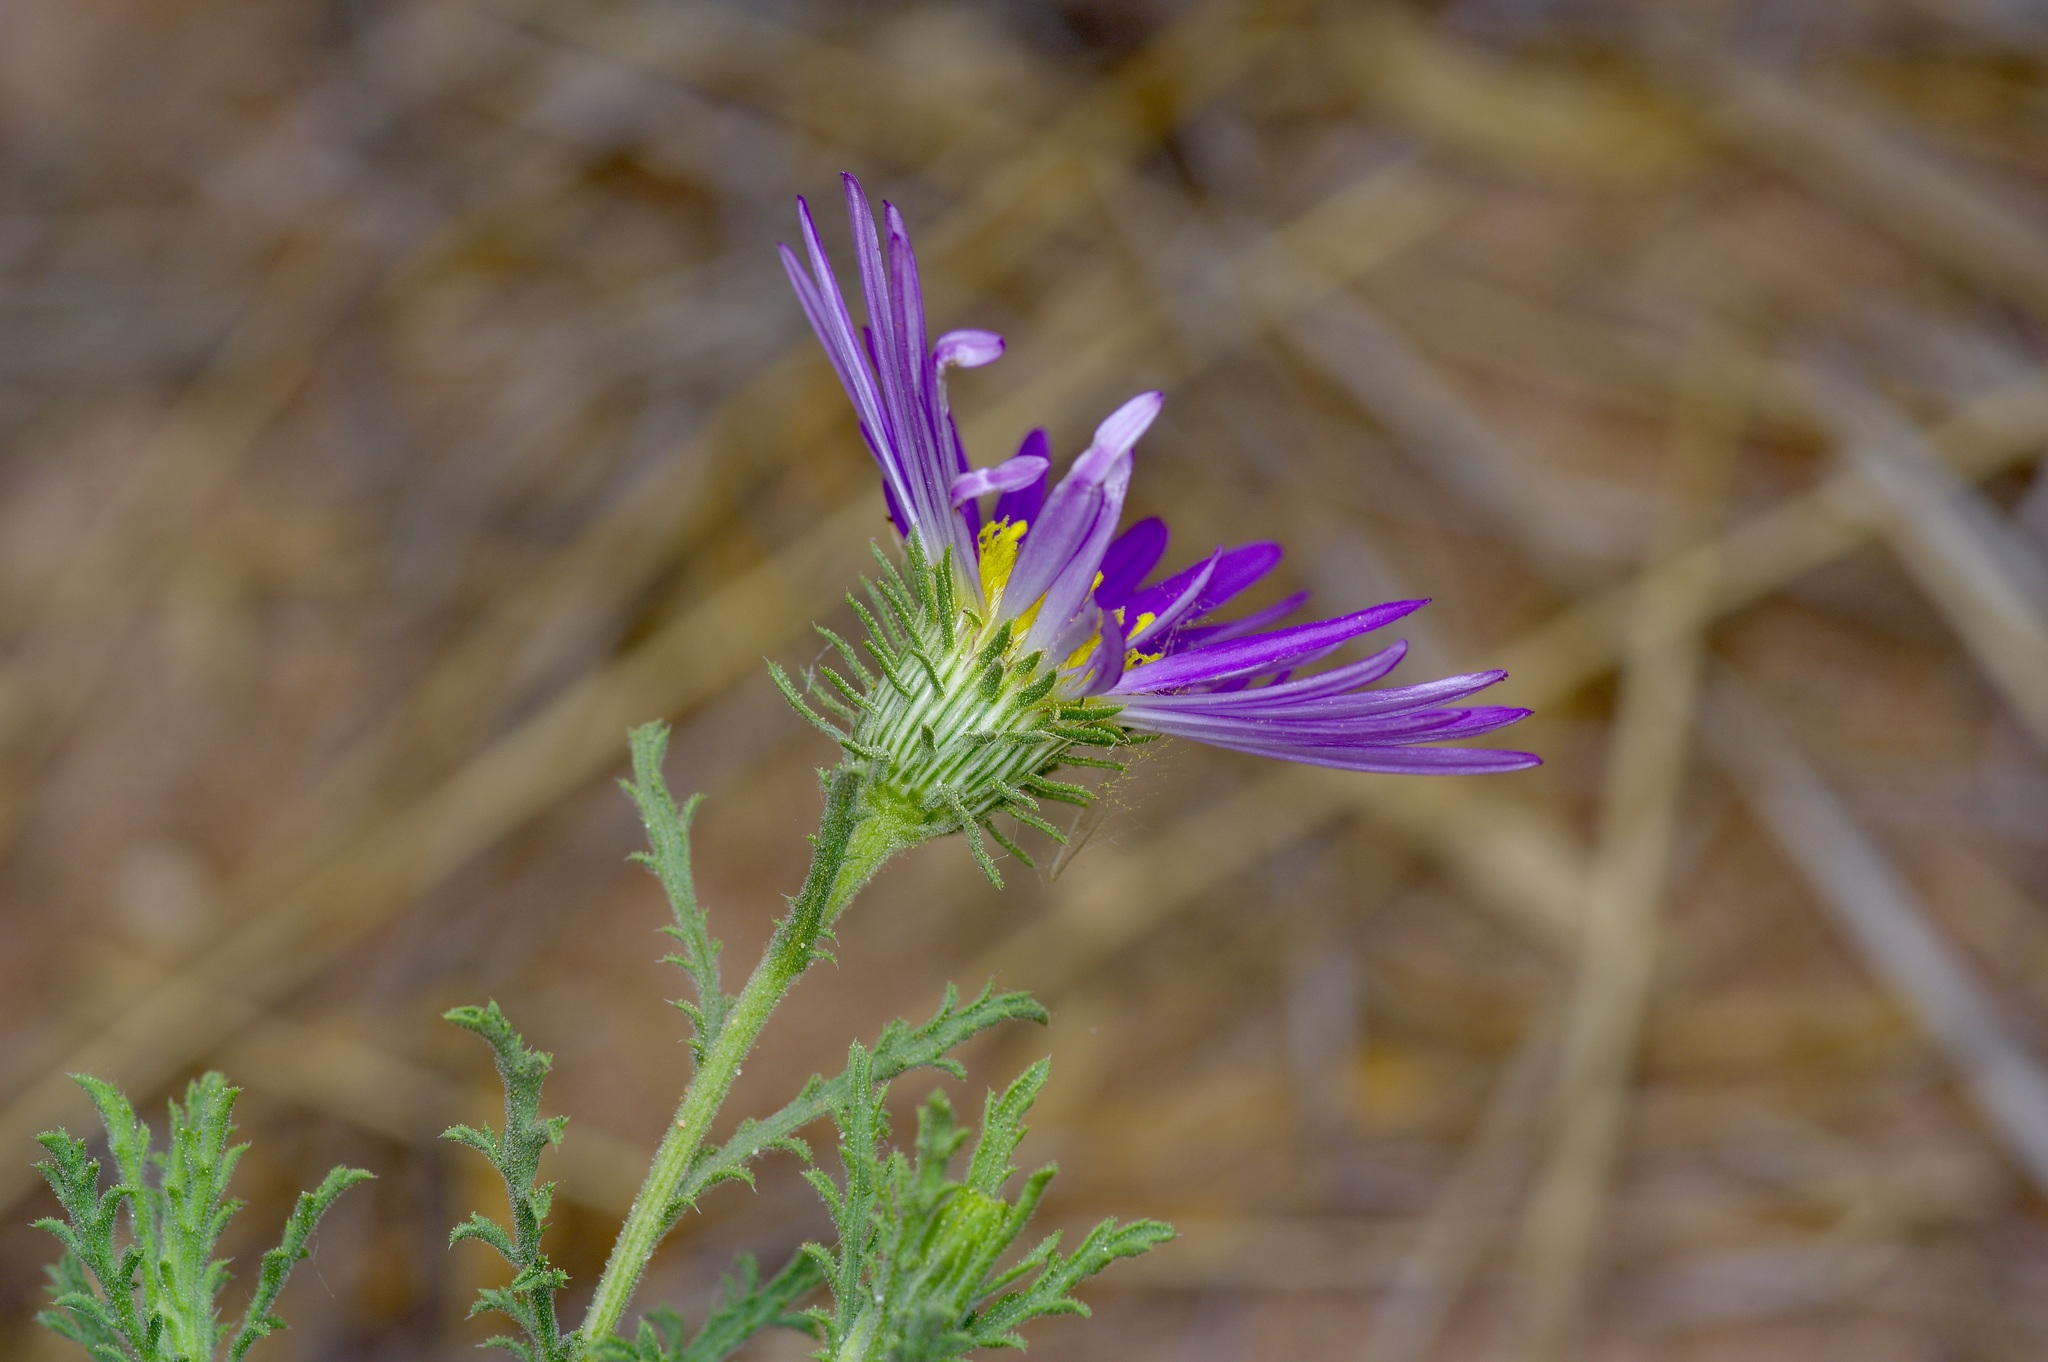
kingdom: Plantae
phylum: Tracheophyta
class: Magnoliopsida
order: Asterales
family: Asteraceae
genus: Machaeranthera
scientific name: Machaeranthera tanacetifolia
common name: Tansy-aster
